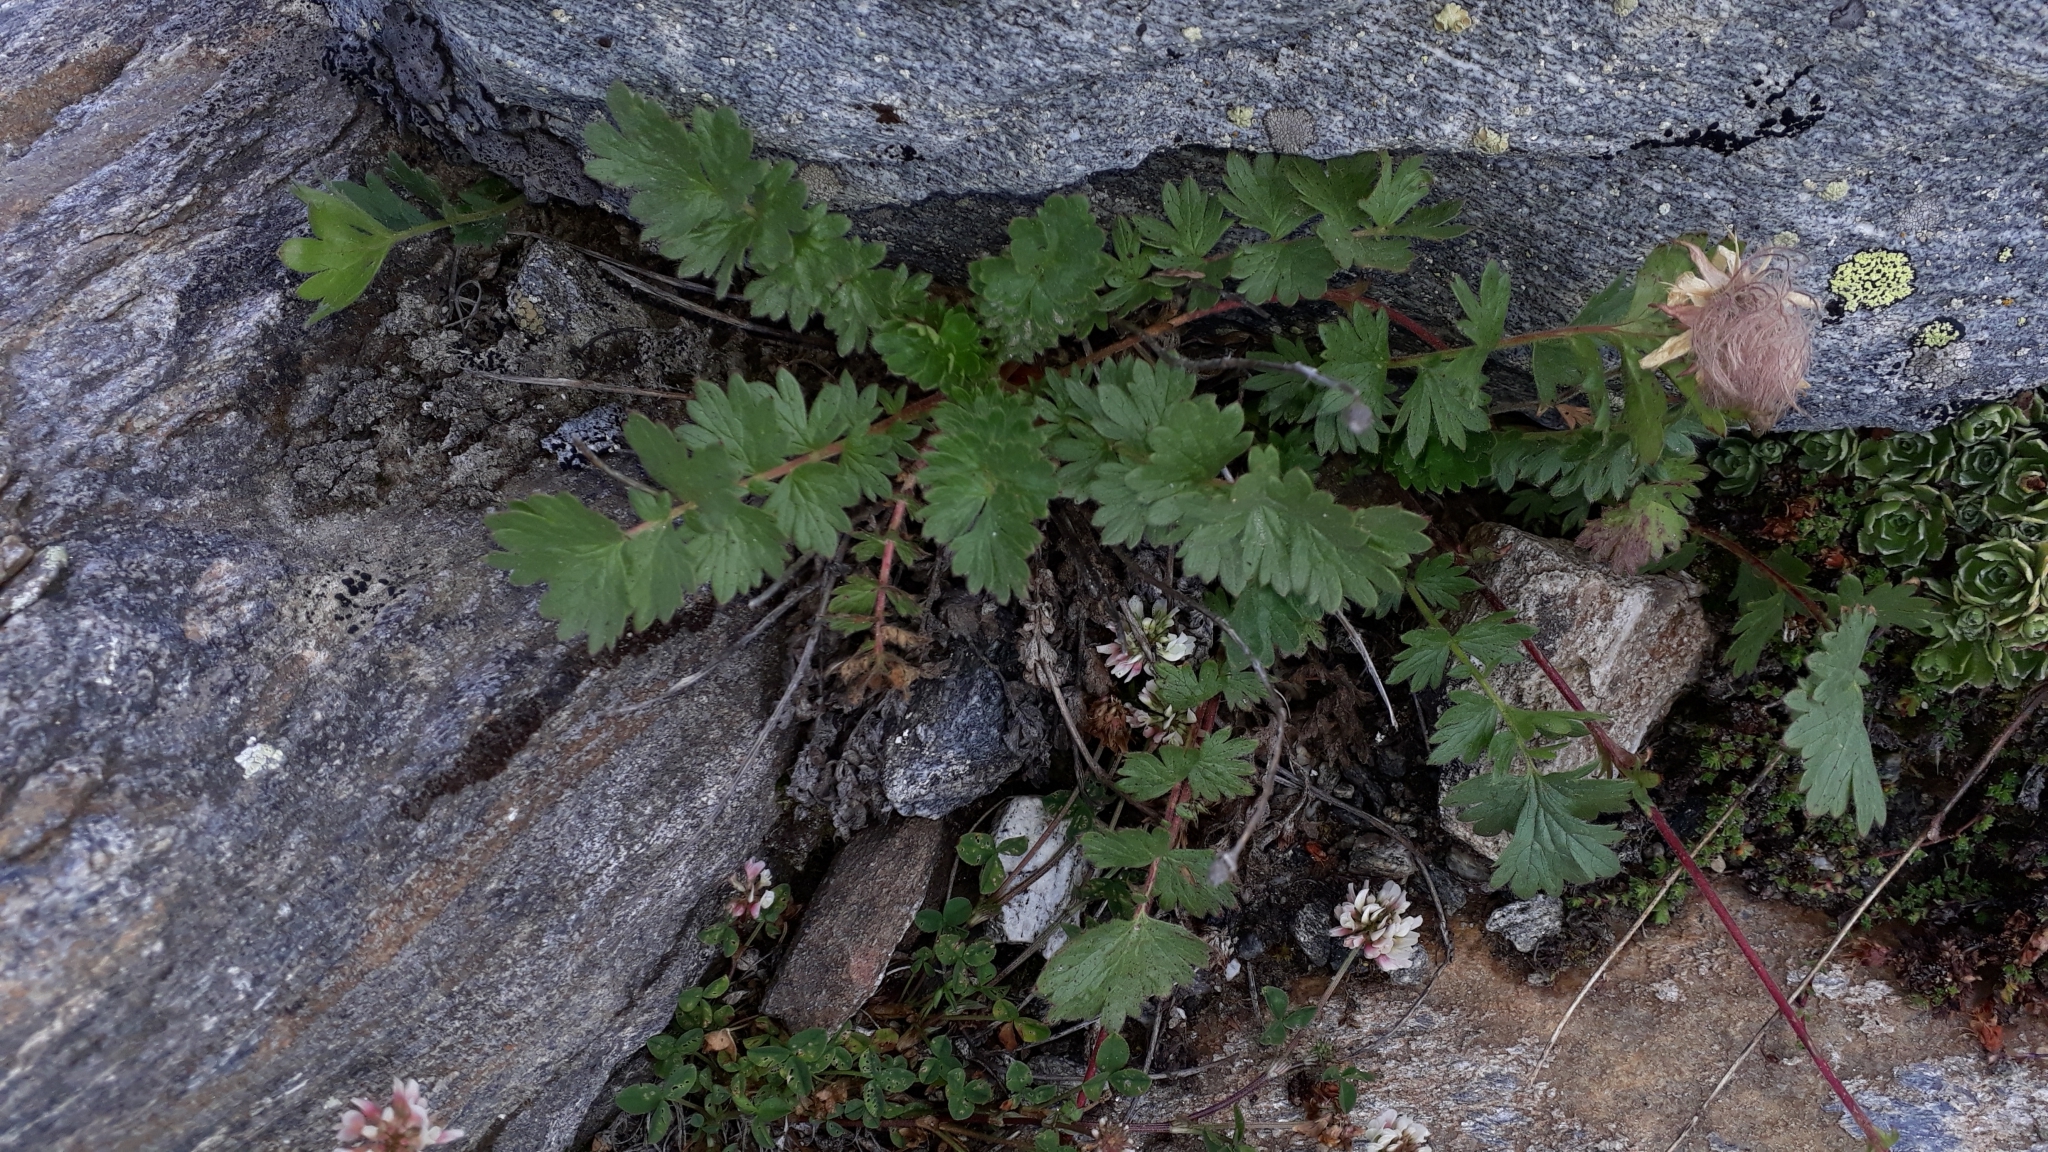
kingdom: Plantae
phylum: Tracheophyta
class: Magnoliopsida
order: Rosales
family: Rosaceae
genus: Geum
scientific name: Geum reptans
